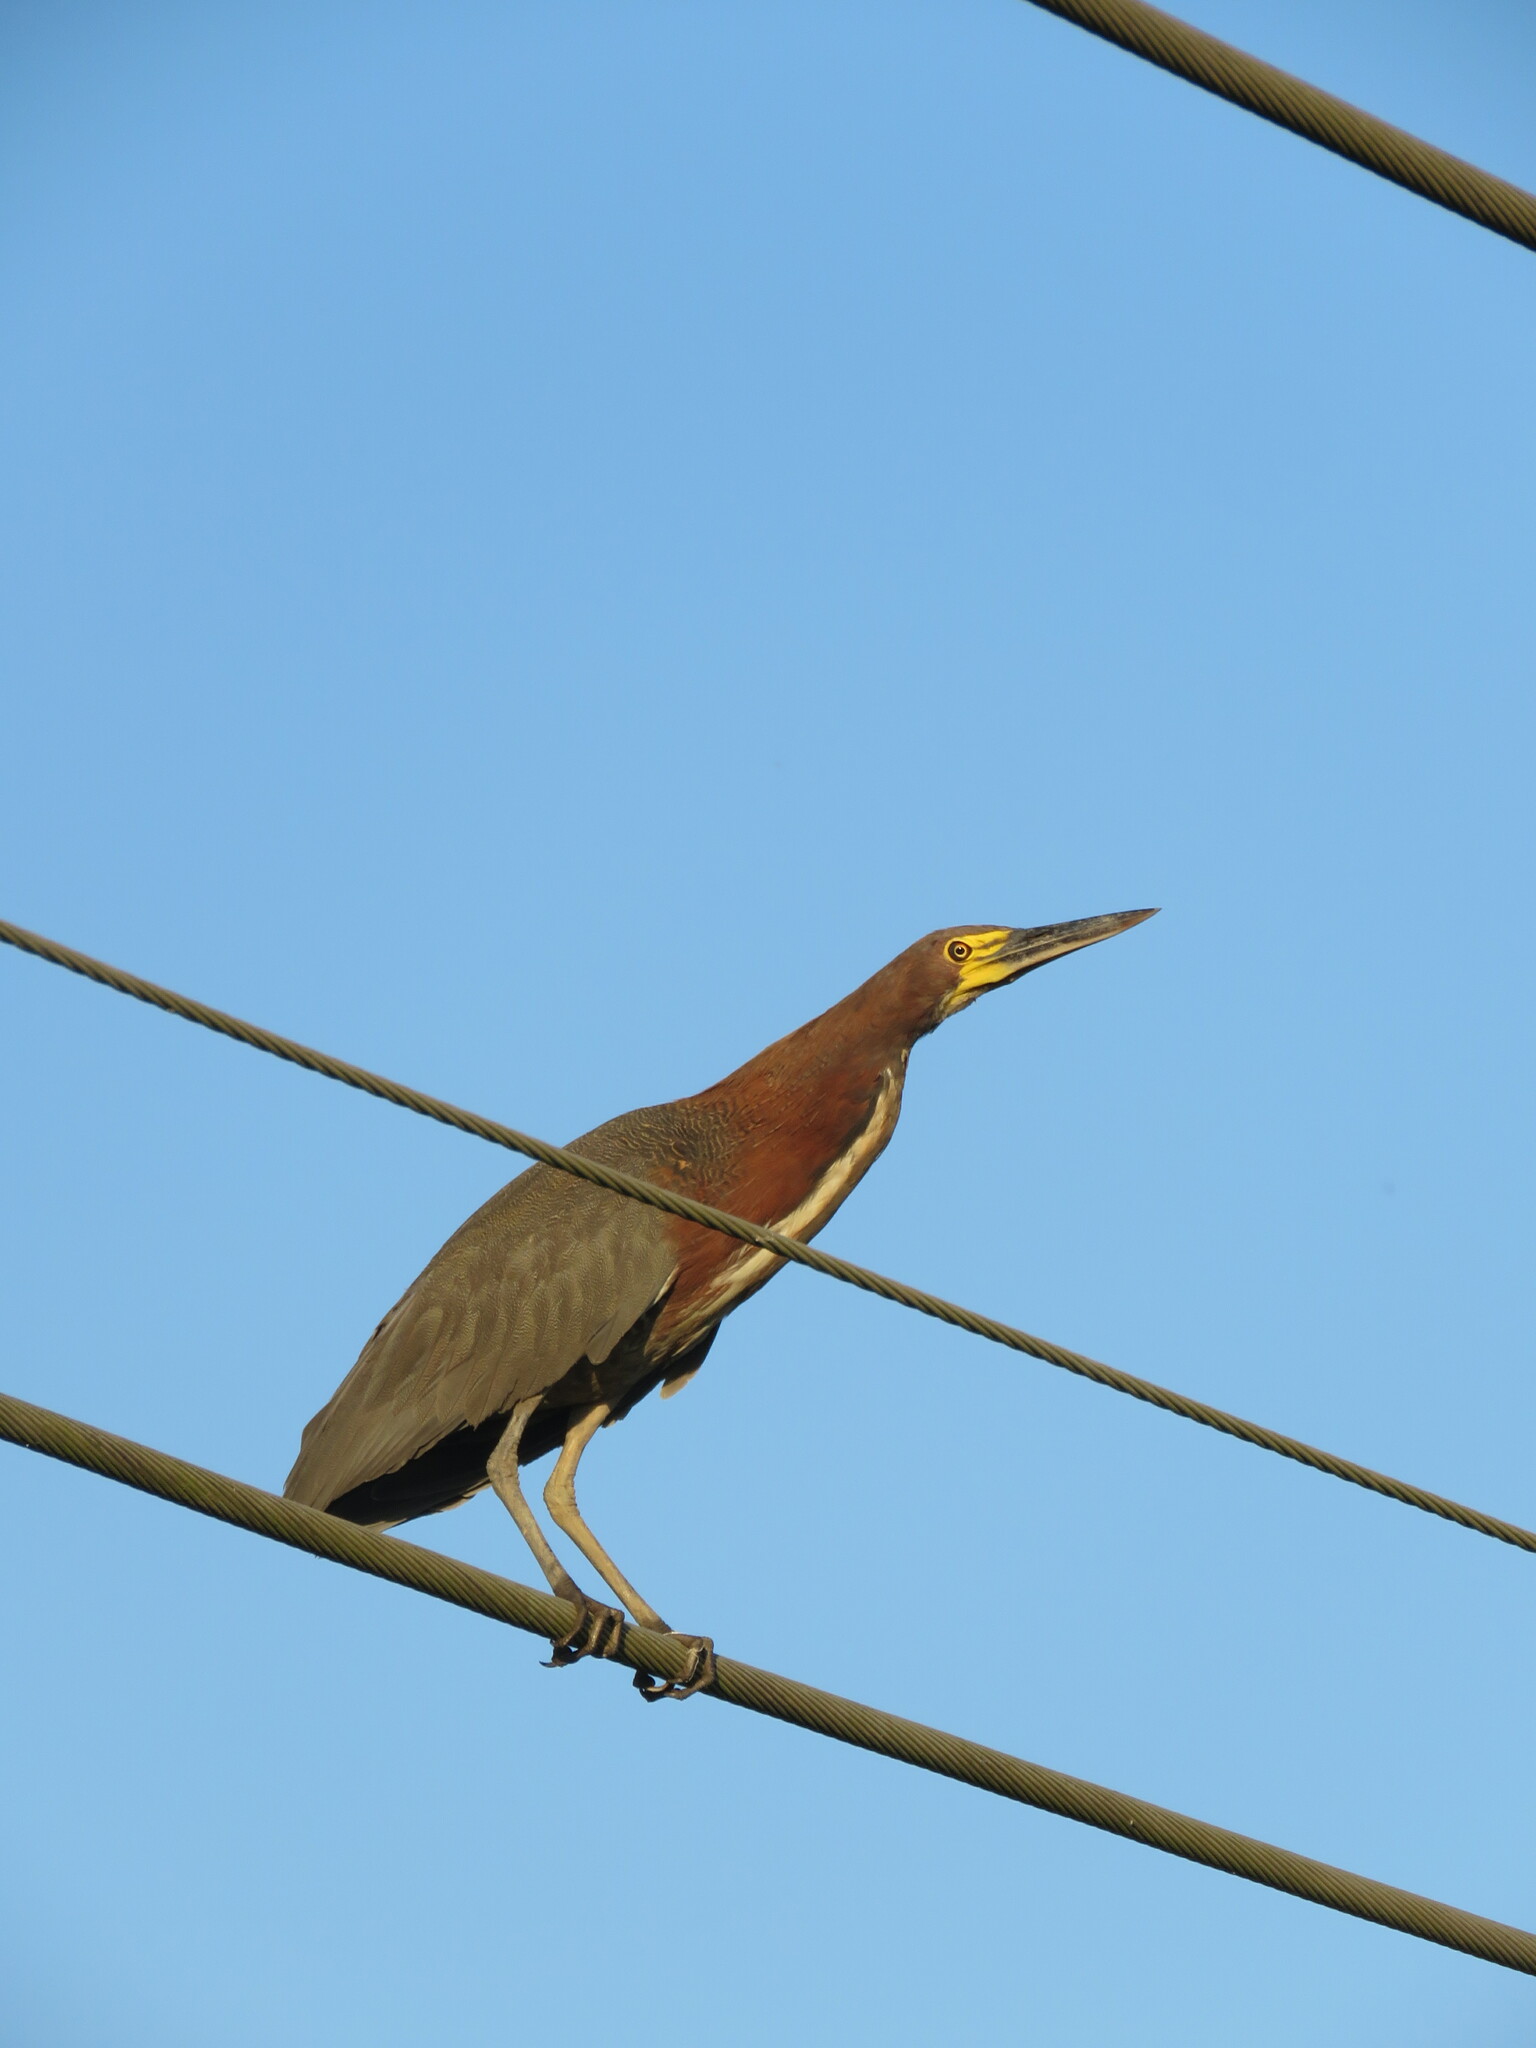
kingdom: Animalia
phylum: Chordata
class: Aves
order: Pelecaniformes
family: Ardeidae
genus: Tigrisoma
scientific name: Tigrisoma lineatum
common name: Rufescent tiger-heron
